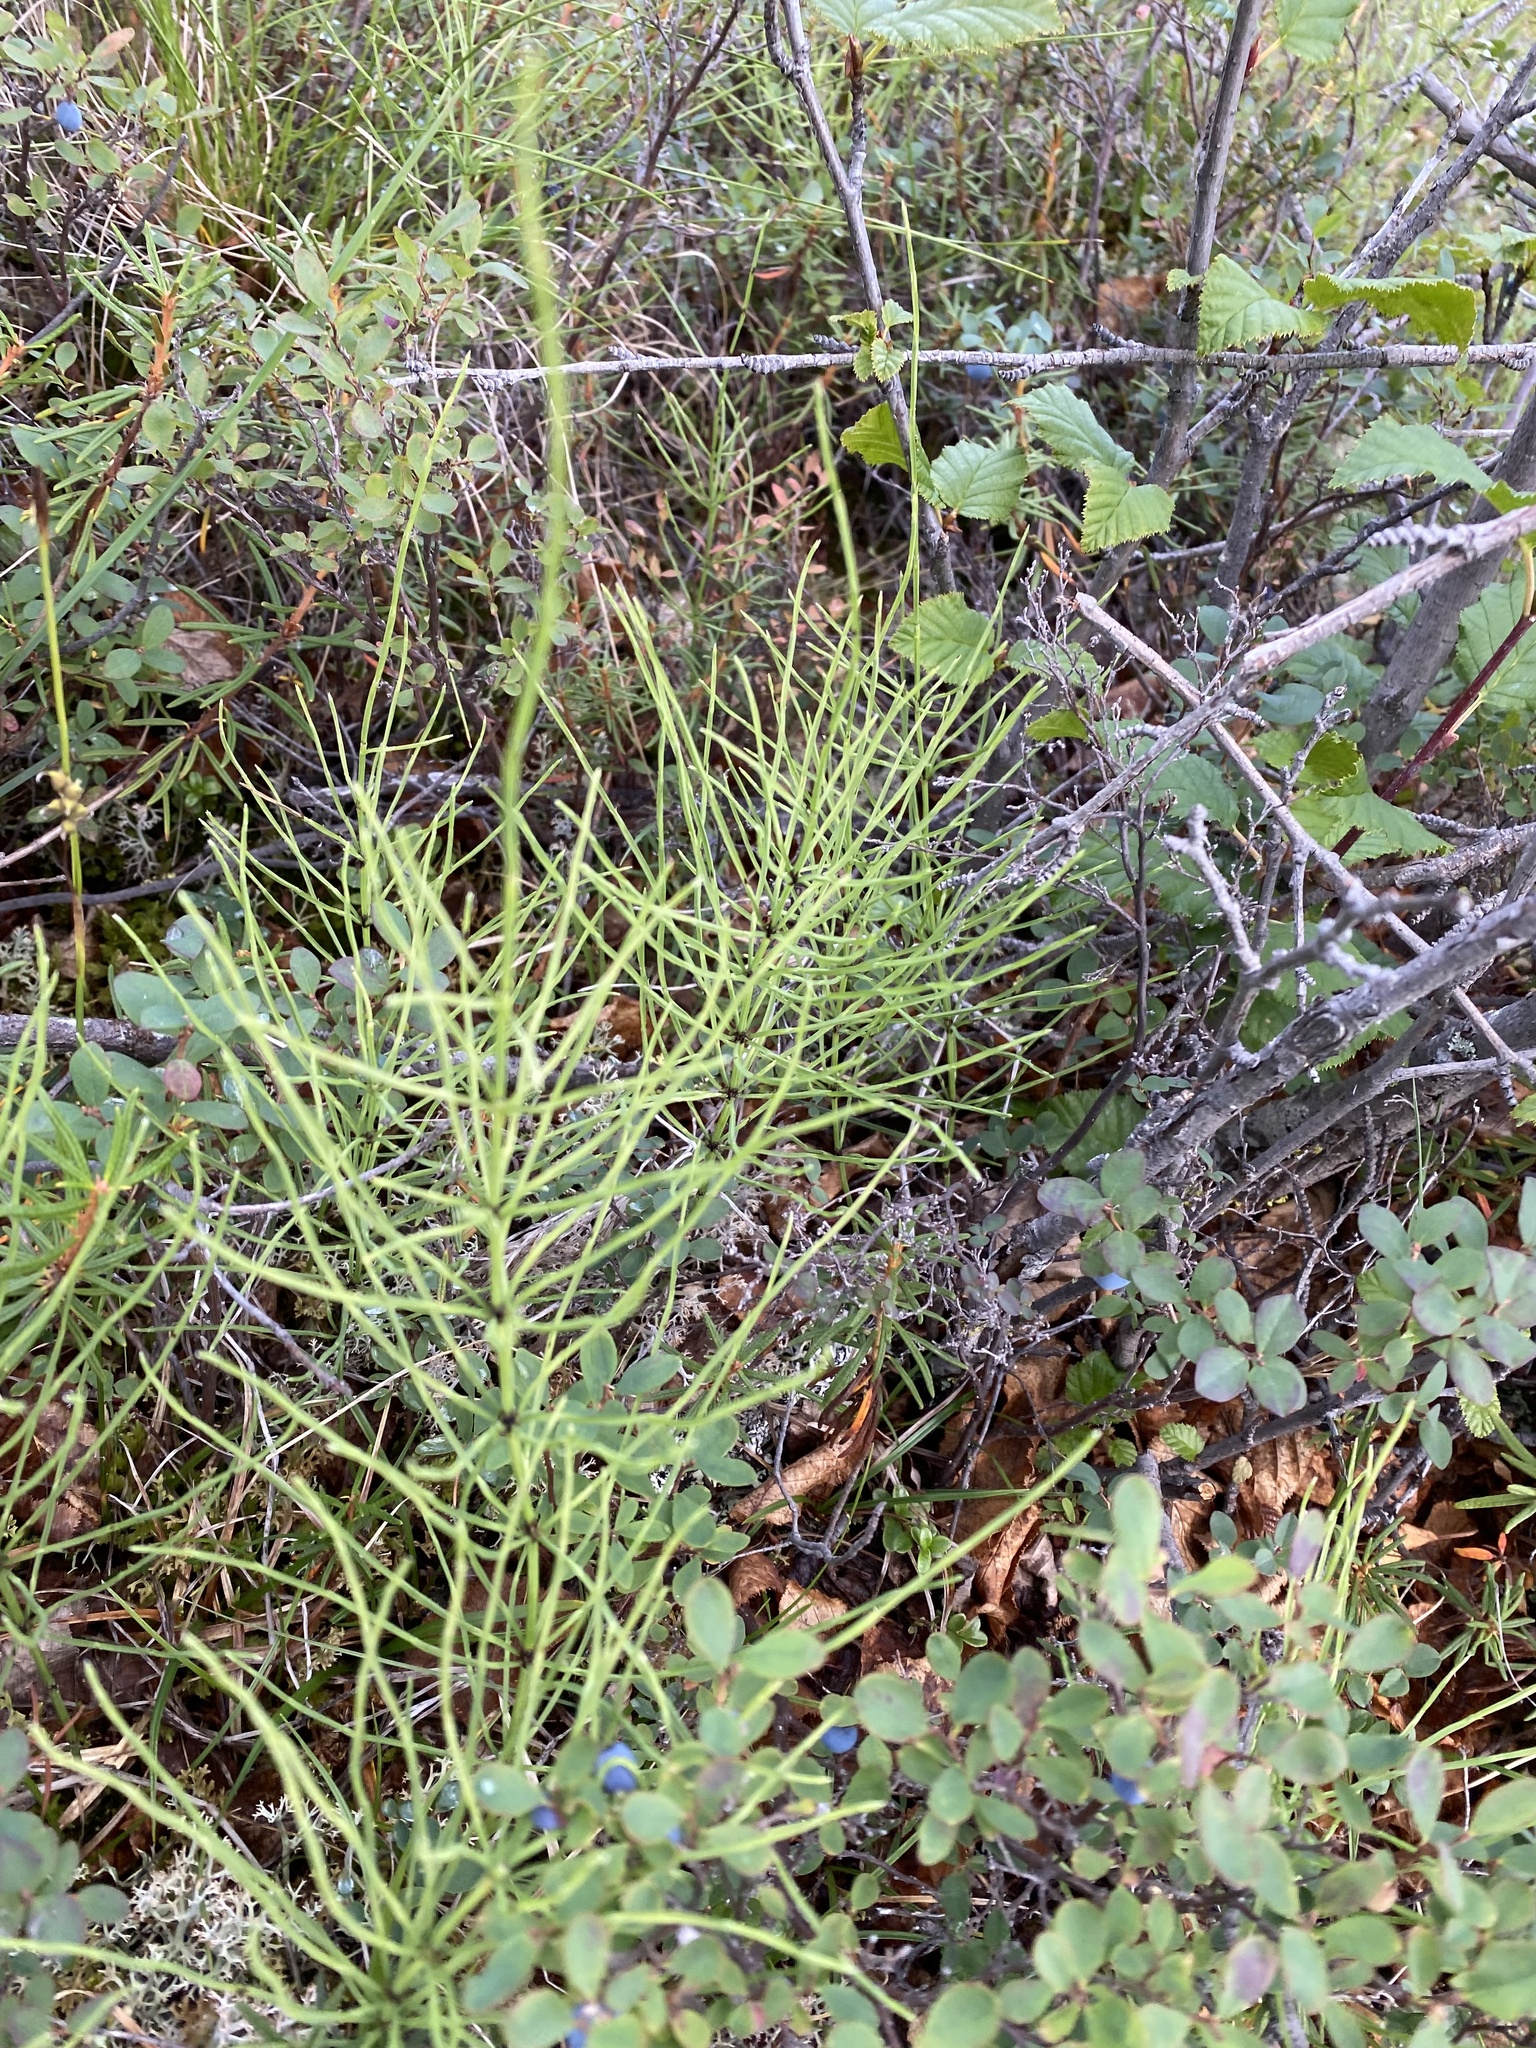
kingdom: Plantae
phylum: Tracheophyta
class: Polypodiopsida
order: Equisetales
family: Equisetaceae
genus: Equisetum
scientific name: Equisetum arvense
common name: Field horsetail
